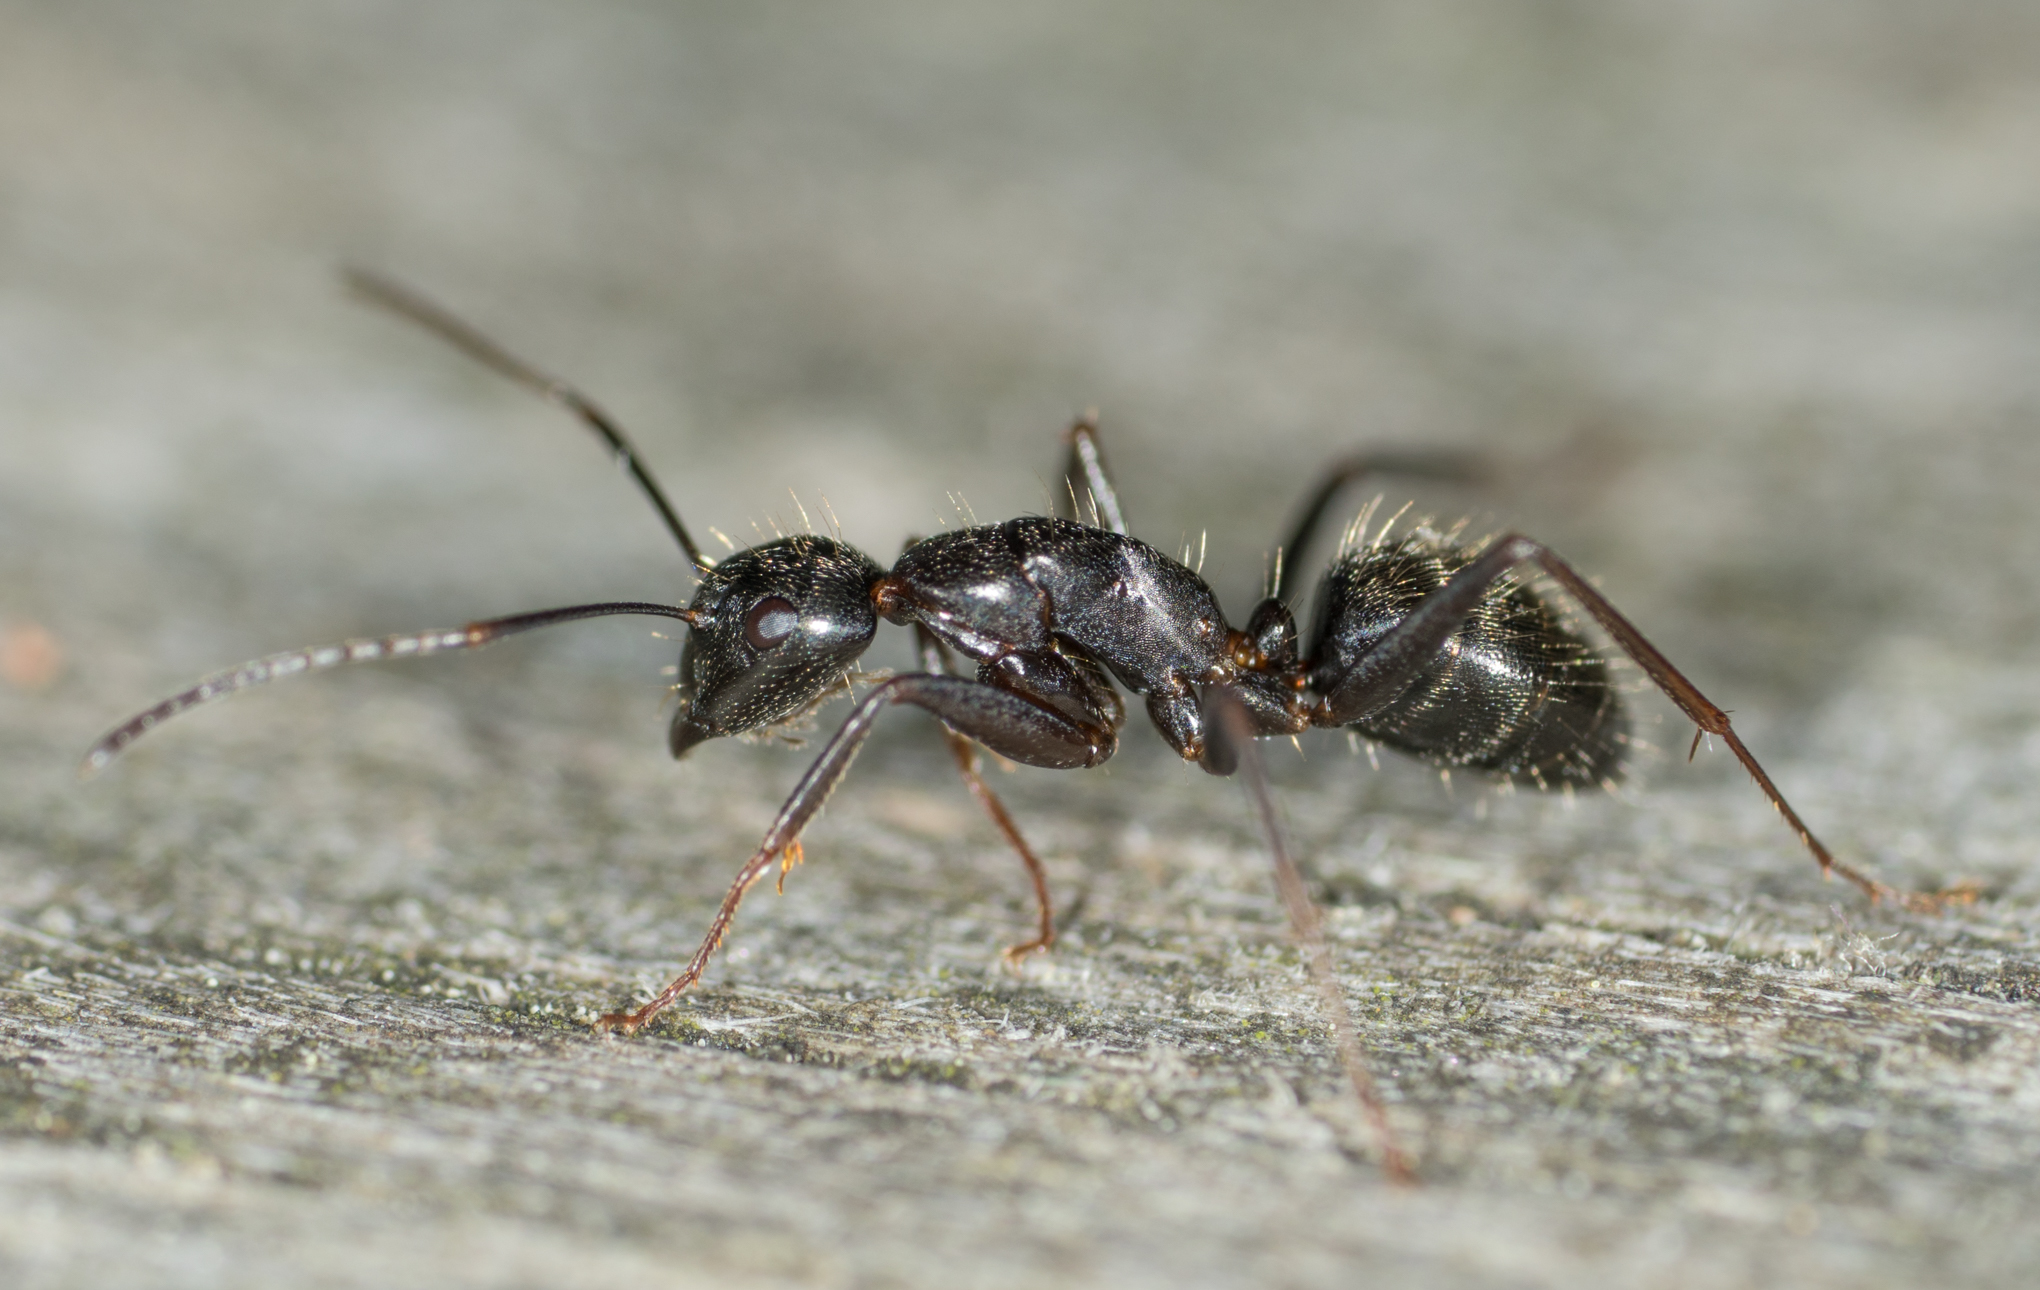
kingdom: Animalia
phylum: Arthropoda
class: Insecta
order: Hymenoptera
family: Formicidae
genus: Camponotus
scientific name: Camponotus pennsylvanicus
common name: Black carpenter ant
